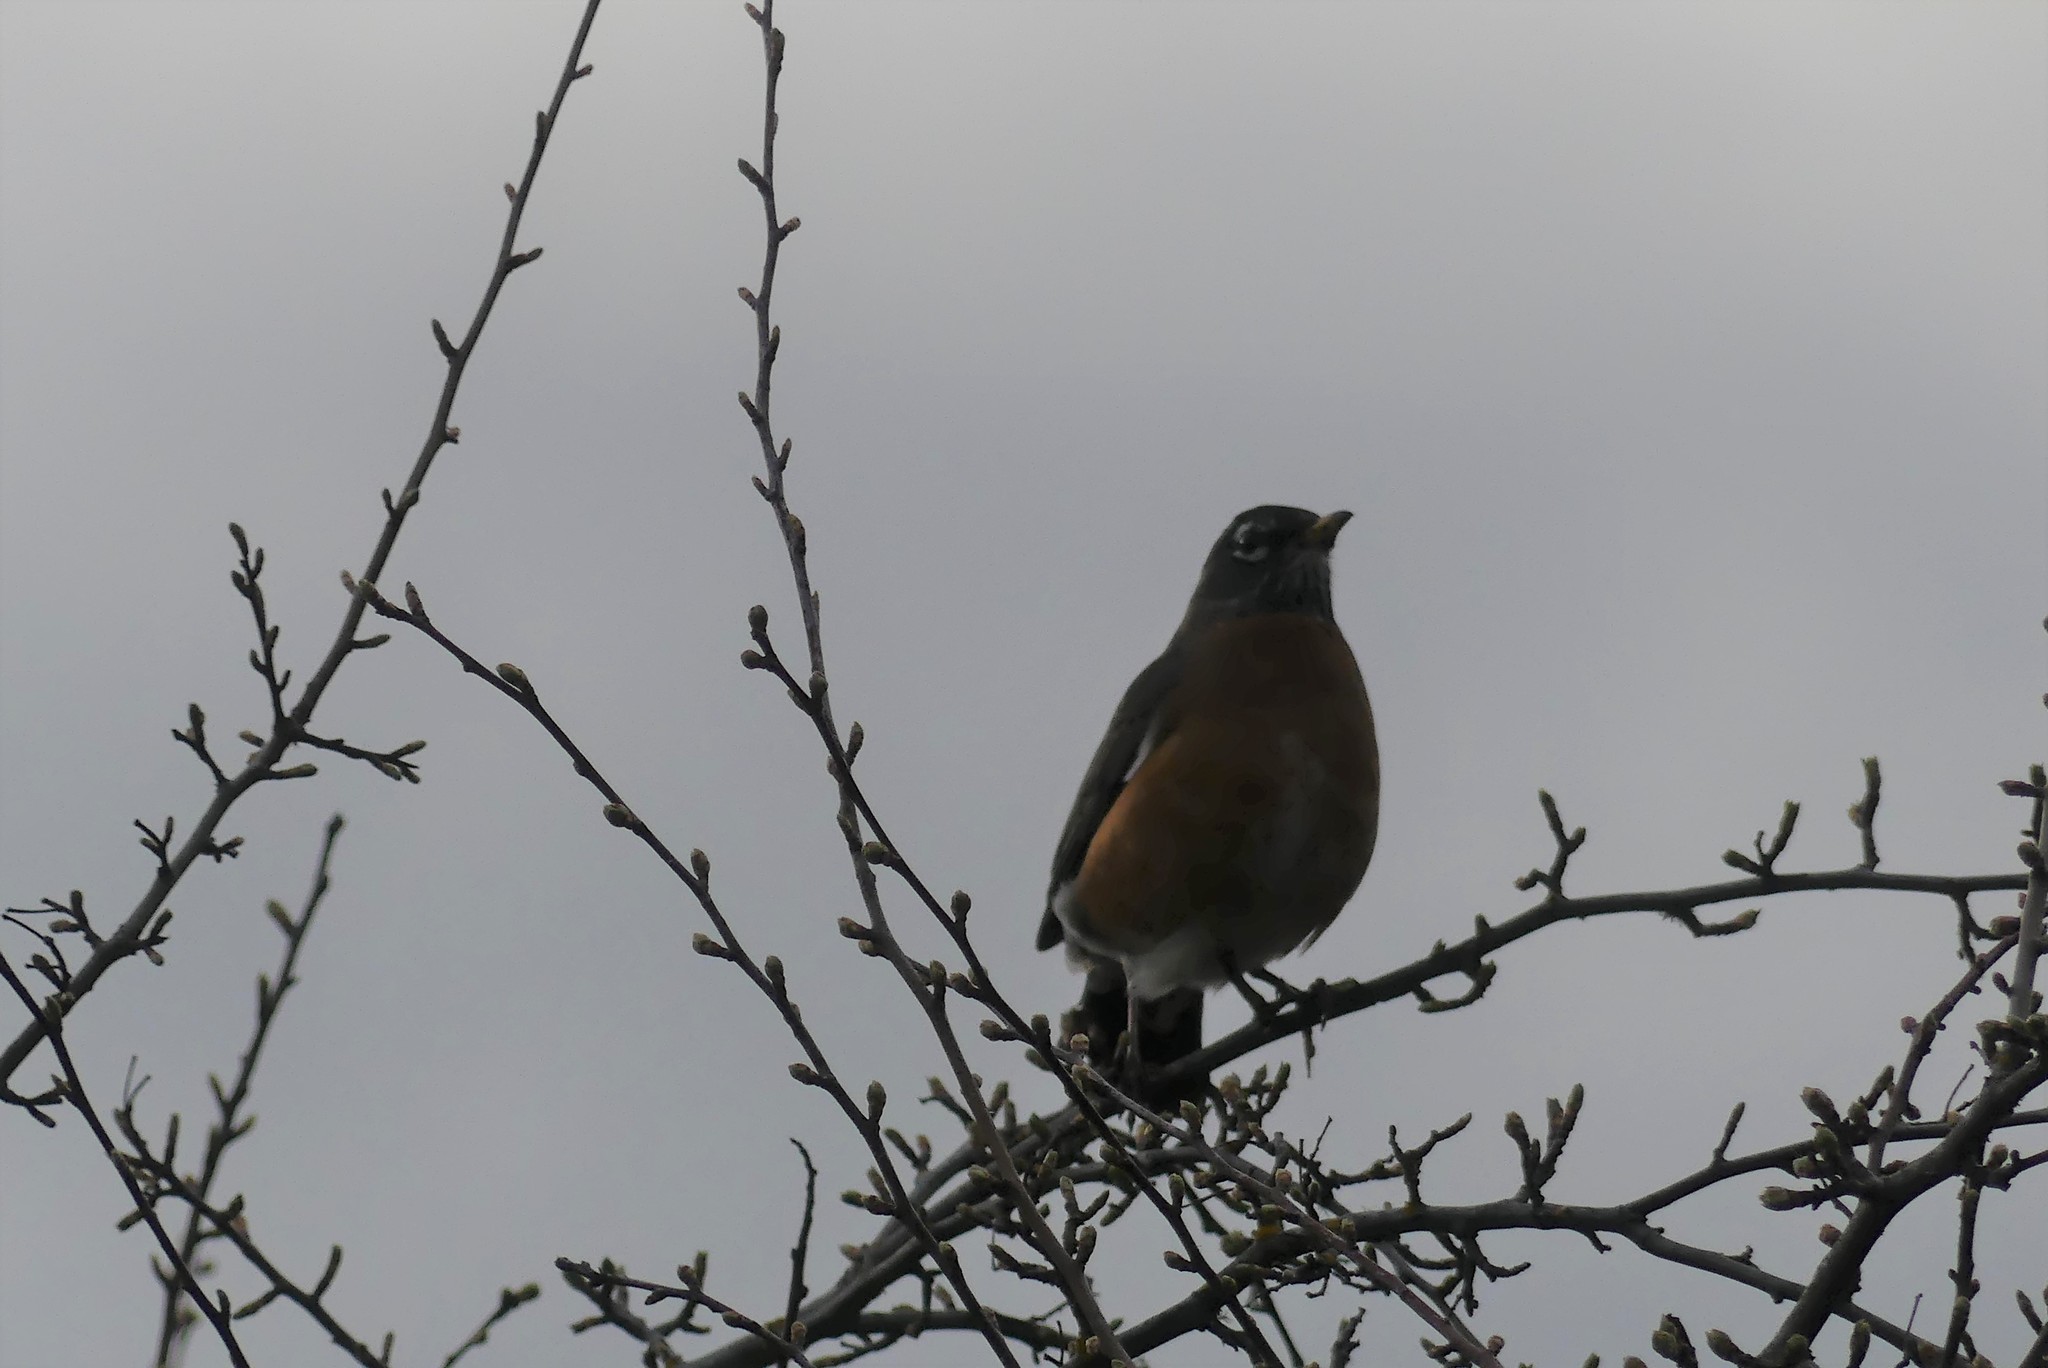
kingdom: Animalia
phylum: Chordata
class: Aves
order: Passeriformes
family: Turdidae
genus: Turdus
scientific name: Turdus migratorius
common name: American robin
